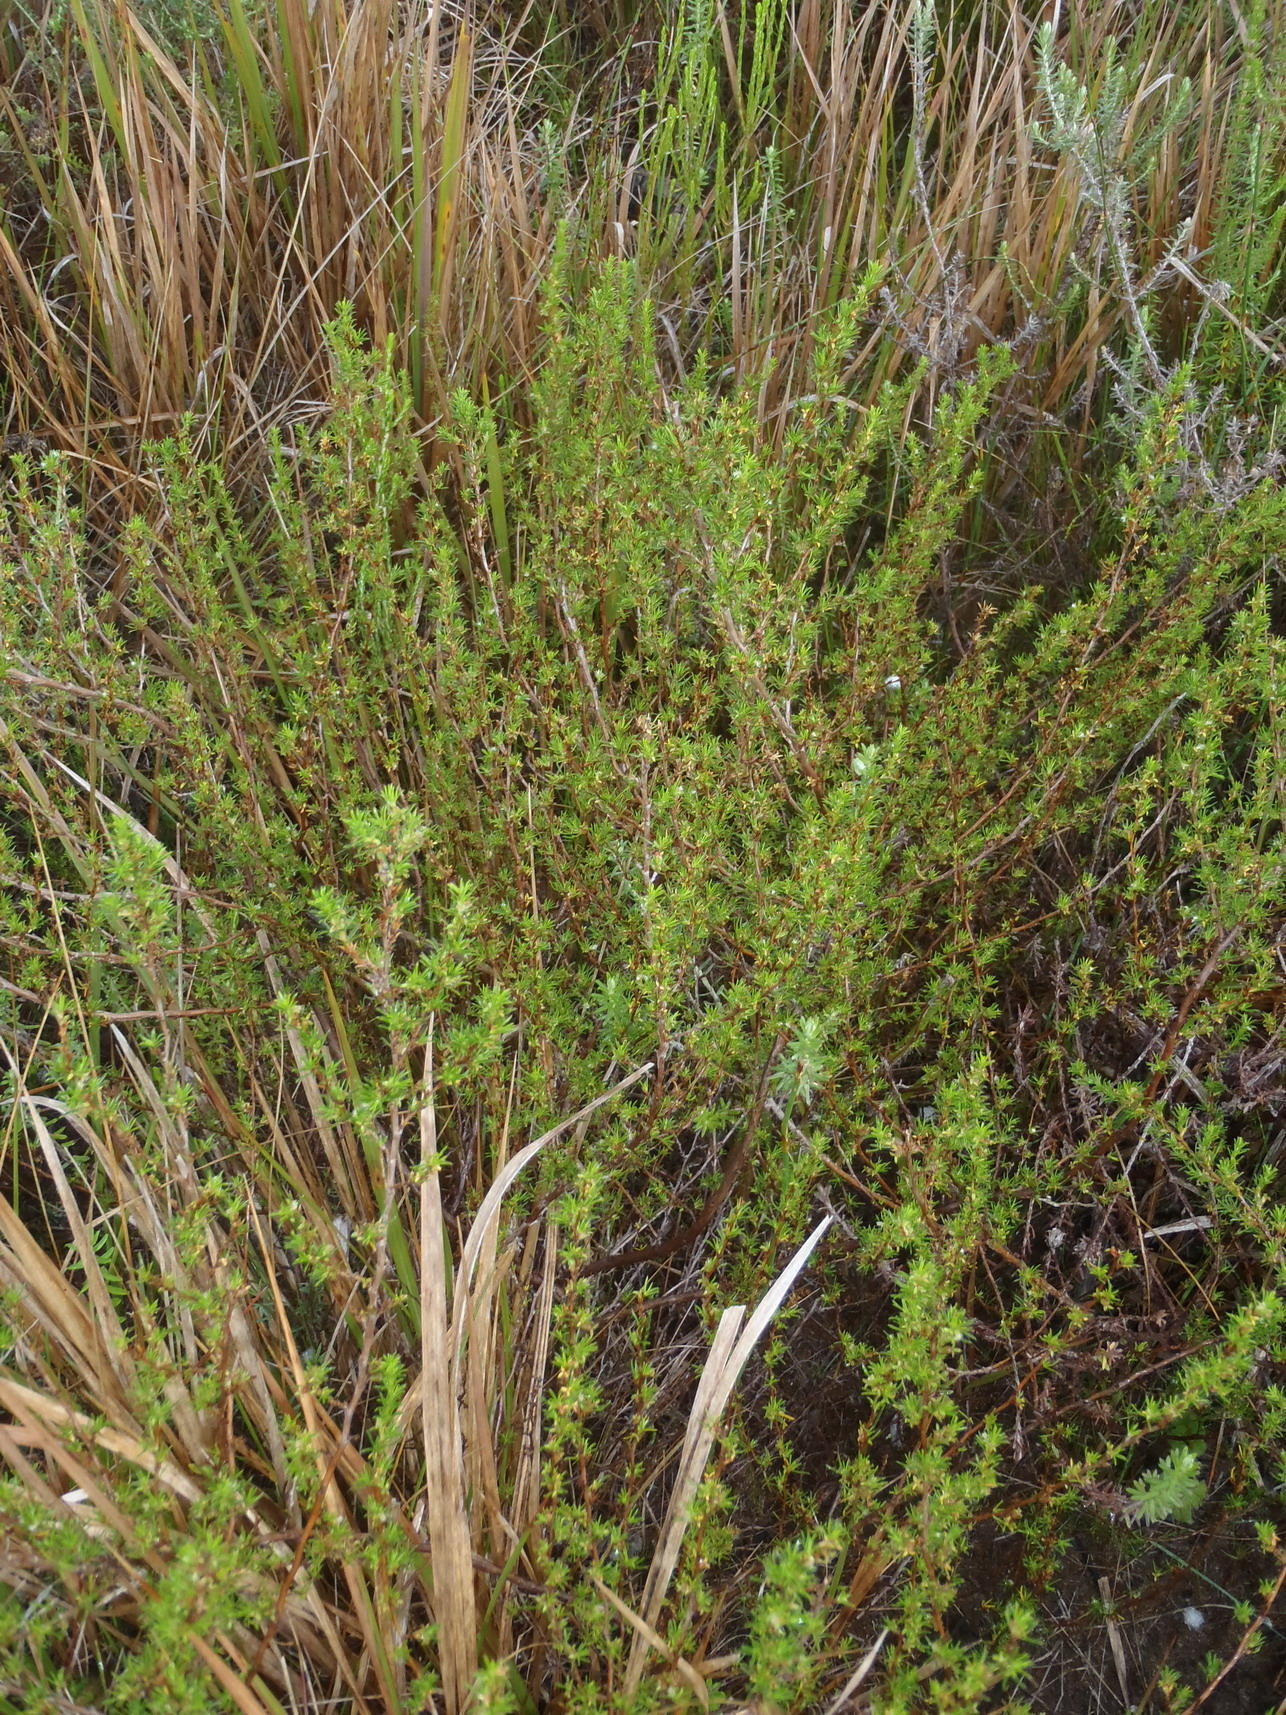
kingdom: Plantae
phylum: Tracheophyta
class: Magnoliopsida
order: Rosales
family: Rosaceae
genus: Cliffortia
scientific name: Cliffortia filifolia
